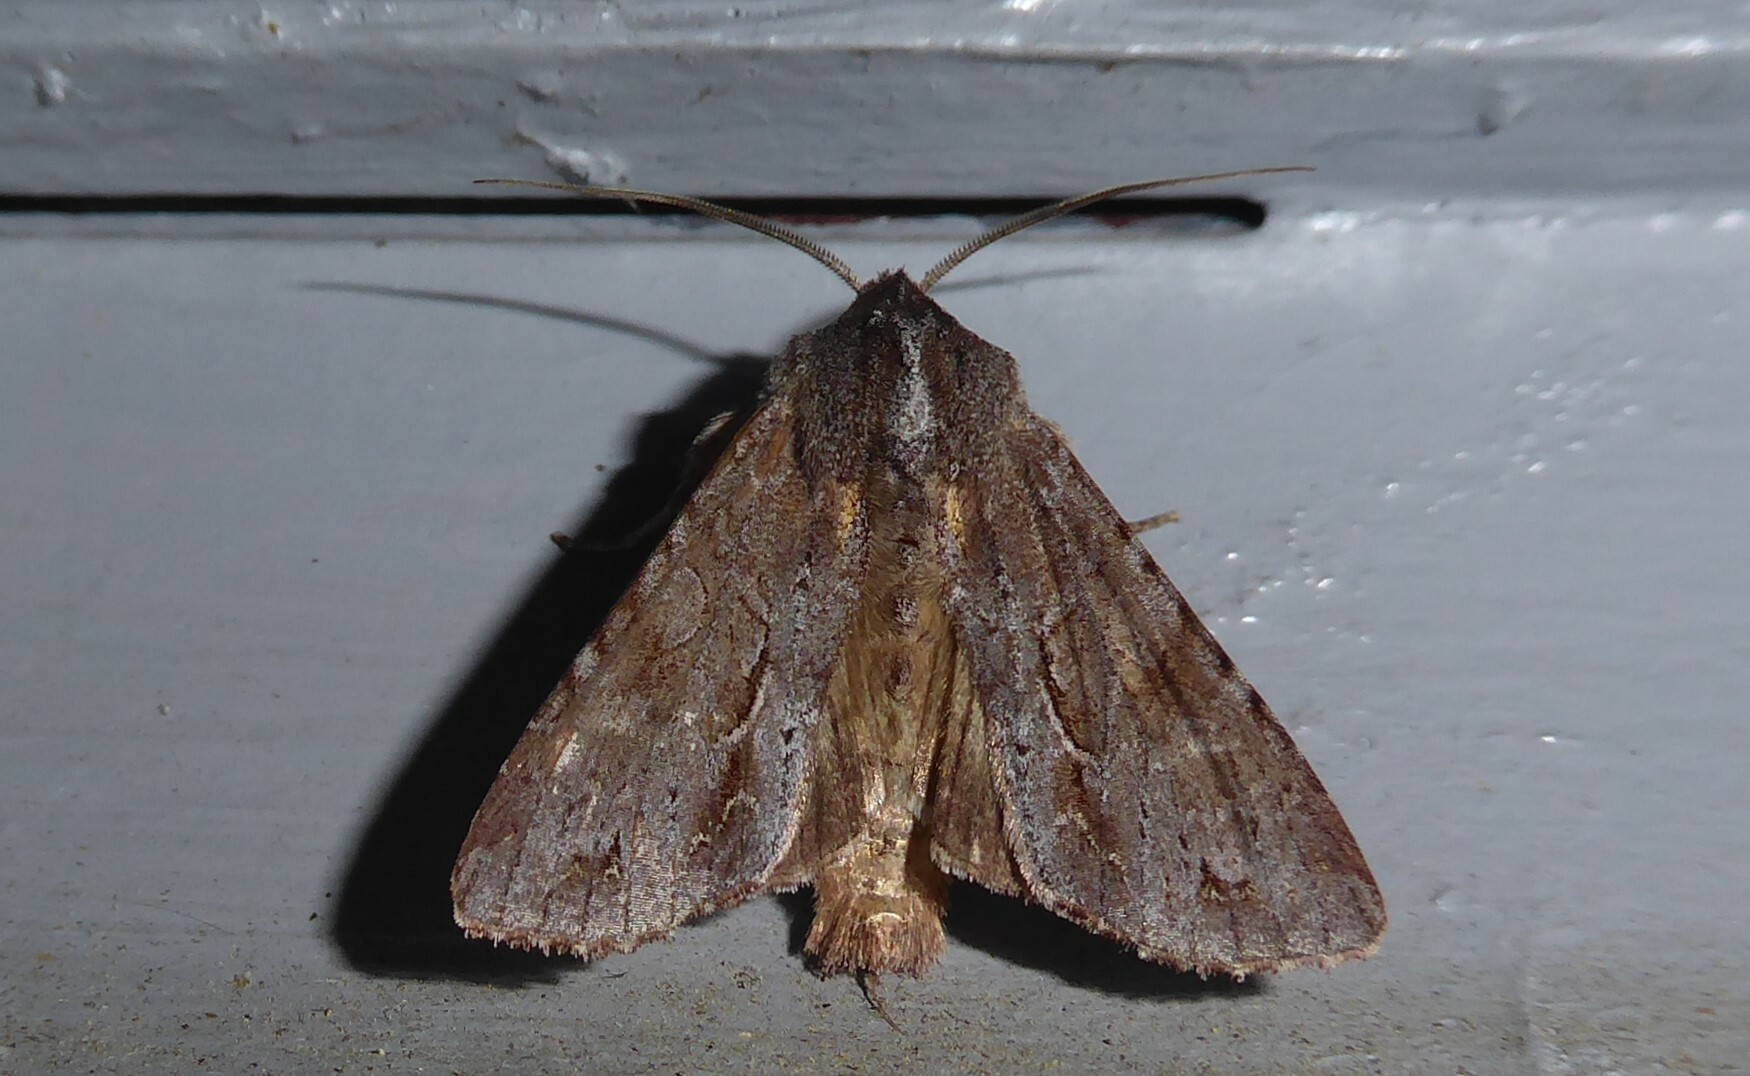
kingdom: Animalia
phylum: Arthropoda
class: Insecta
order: Lepidoptera
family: Noctuidae
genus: Ichneutica
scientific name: Ichneutica
